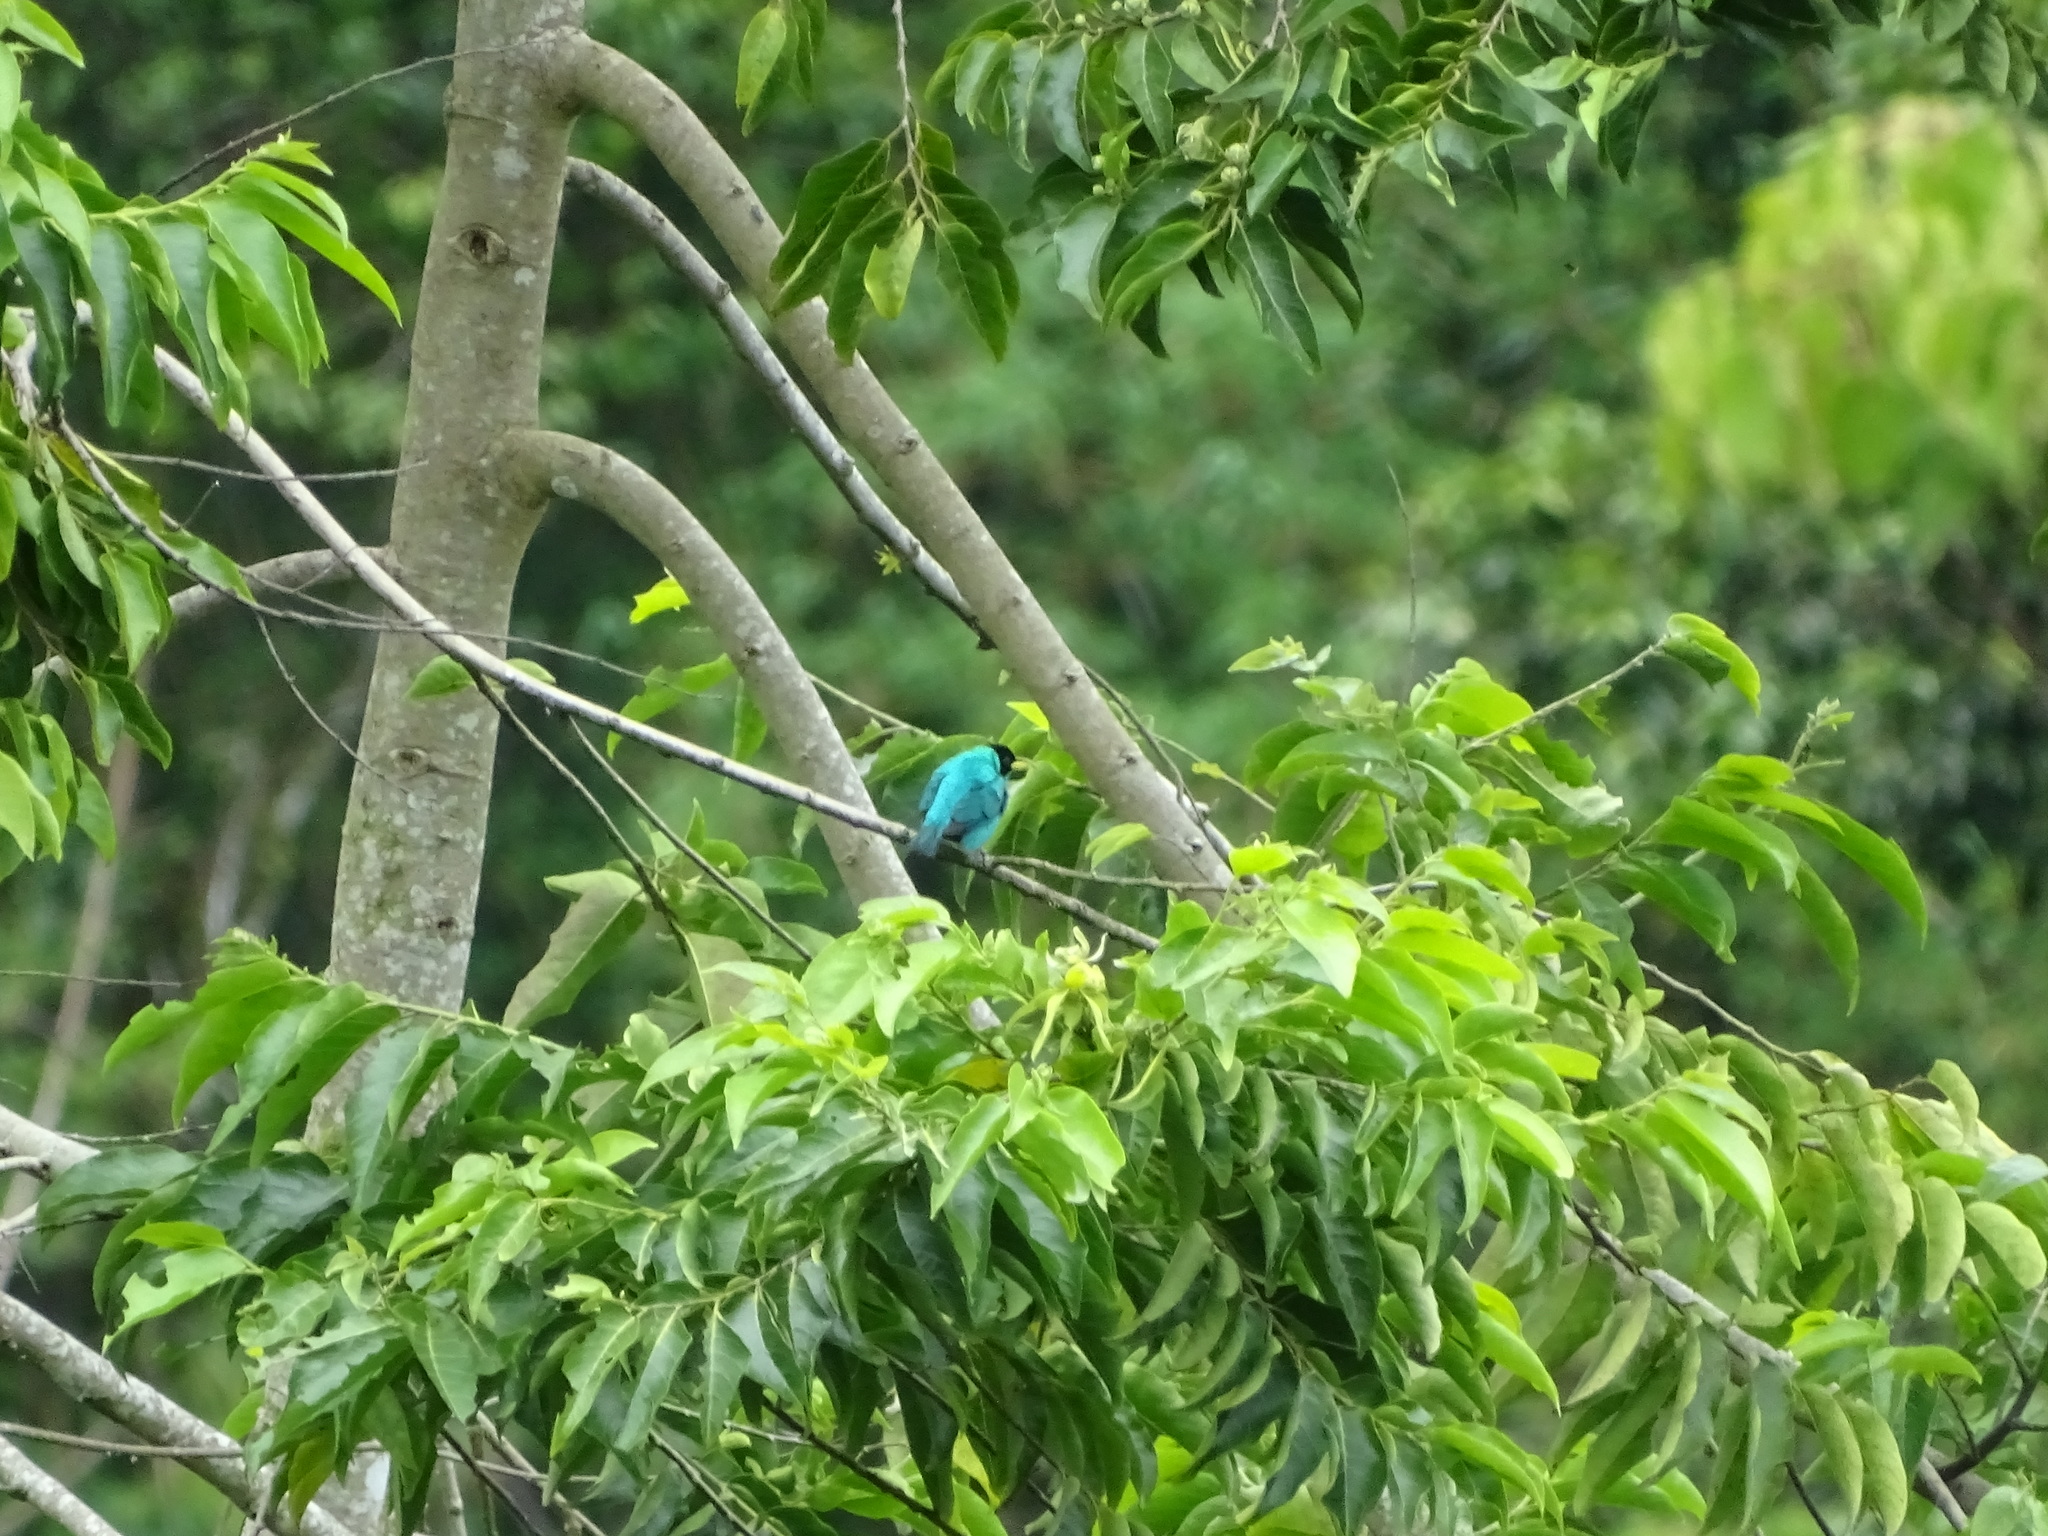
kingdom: Animalia
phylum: Chordata
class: Aves
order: Passeriformes
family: Thraupidae
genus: Chlorophanes
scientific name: Chlorophanes spiza
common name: Green honeycreeper
